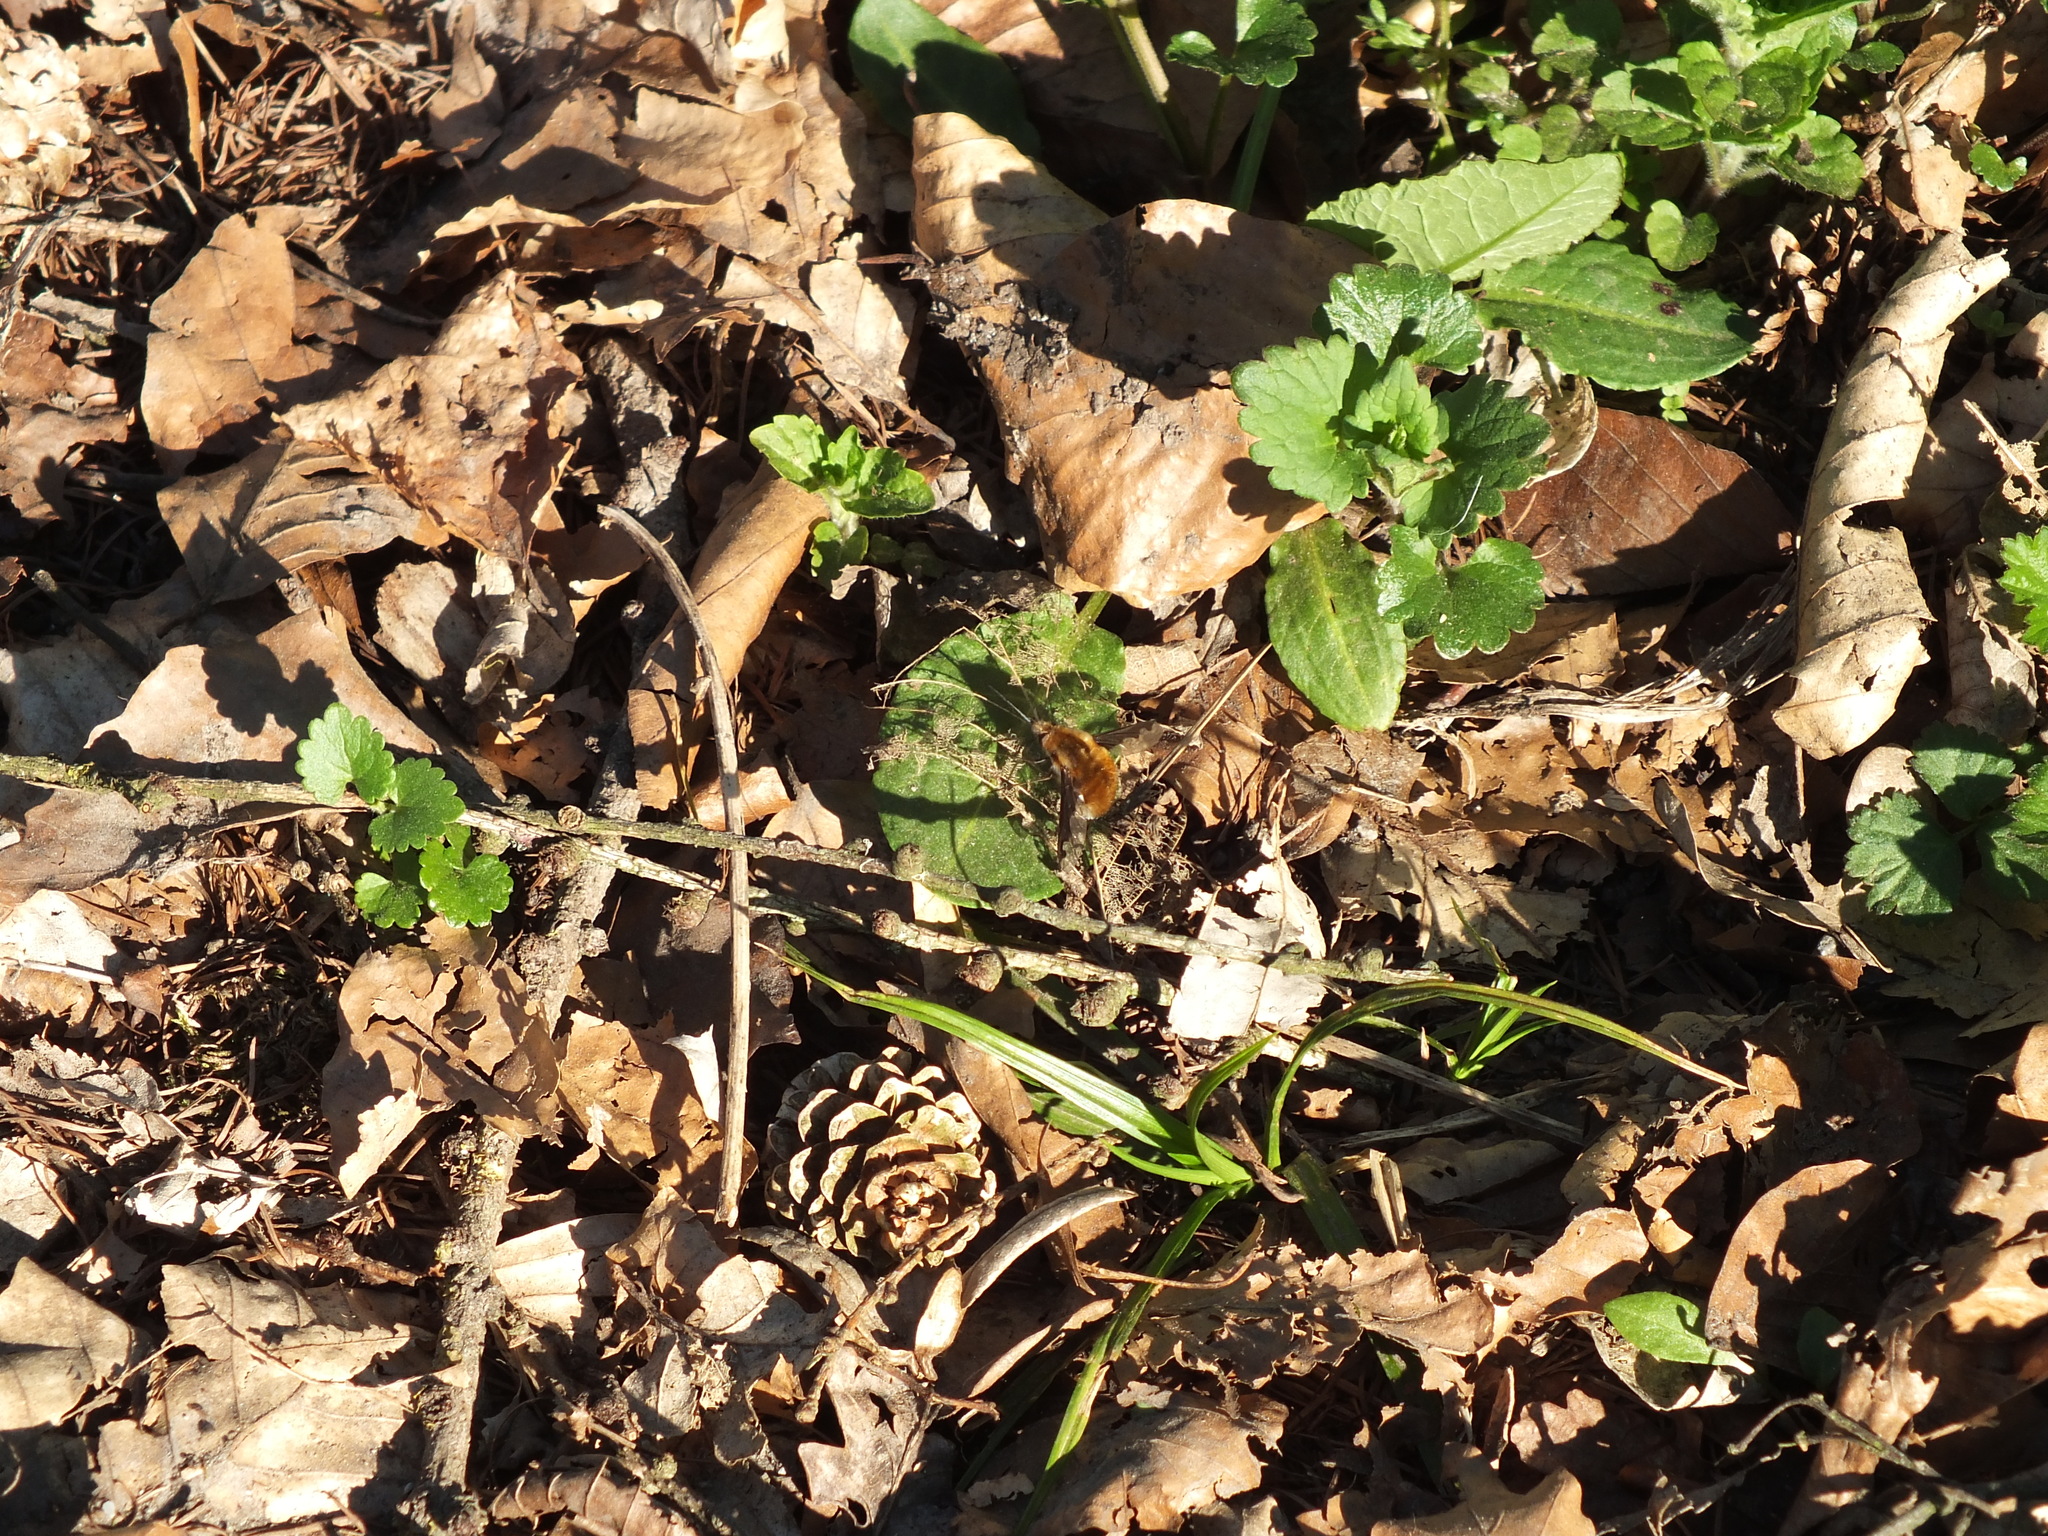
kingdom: Animalia
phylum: Arthropoda
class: Insecta
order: Diptera
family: Bombyliidae
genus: Bombylius
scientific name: Bombylius major
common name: Bee fly
